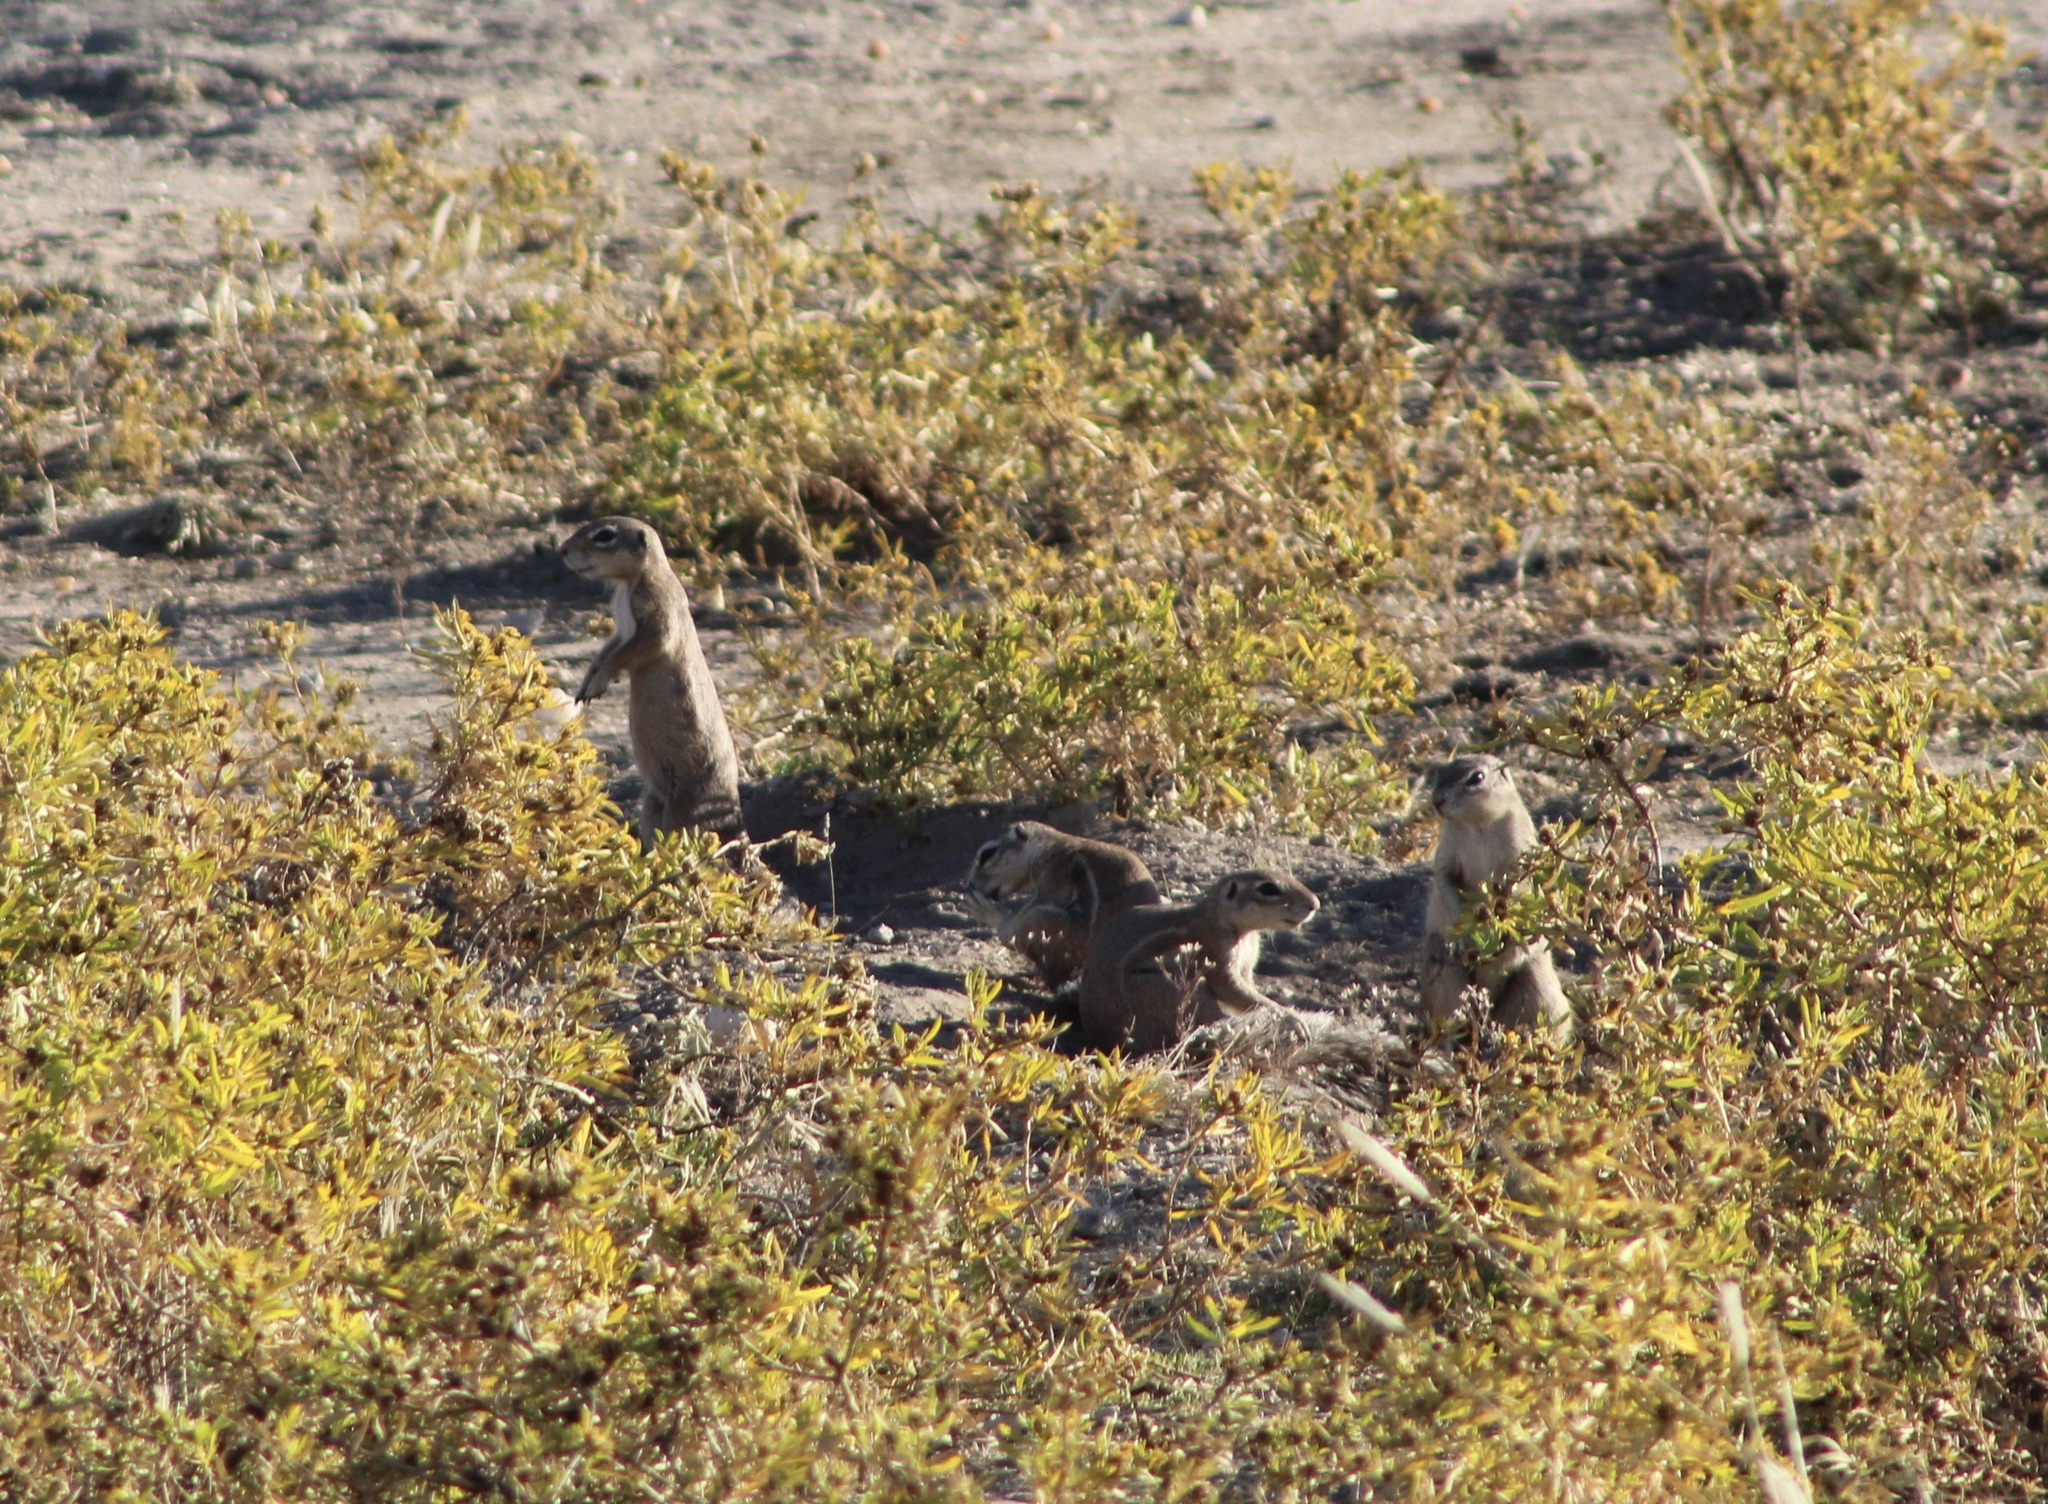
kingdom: Animalia
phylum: Chordata
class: Mammalia
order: Rodentia
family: Sciuridae
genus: Xerus
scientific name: Xerus inauris
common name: South african ground squirrel
